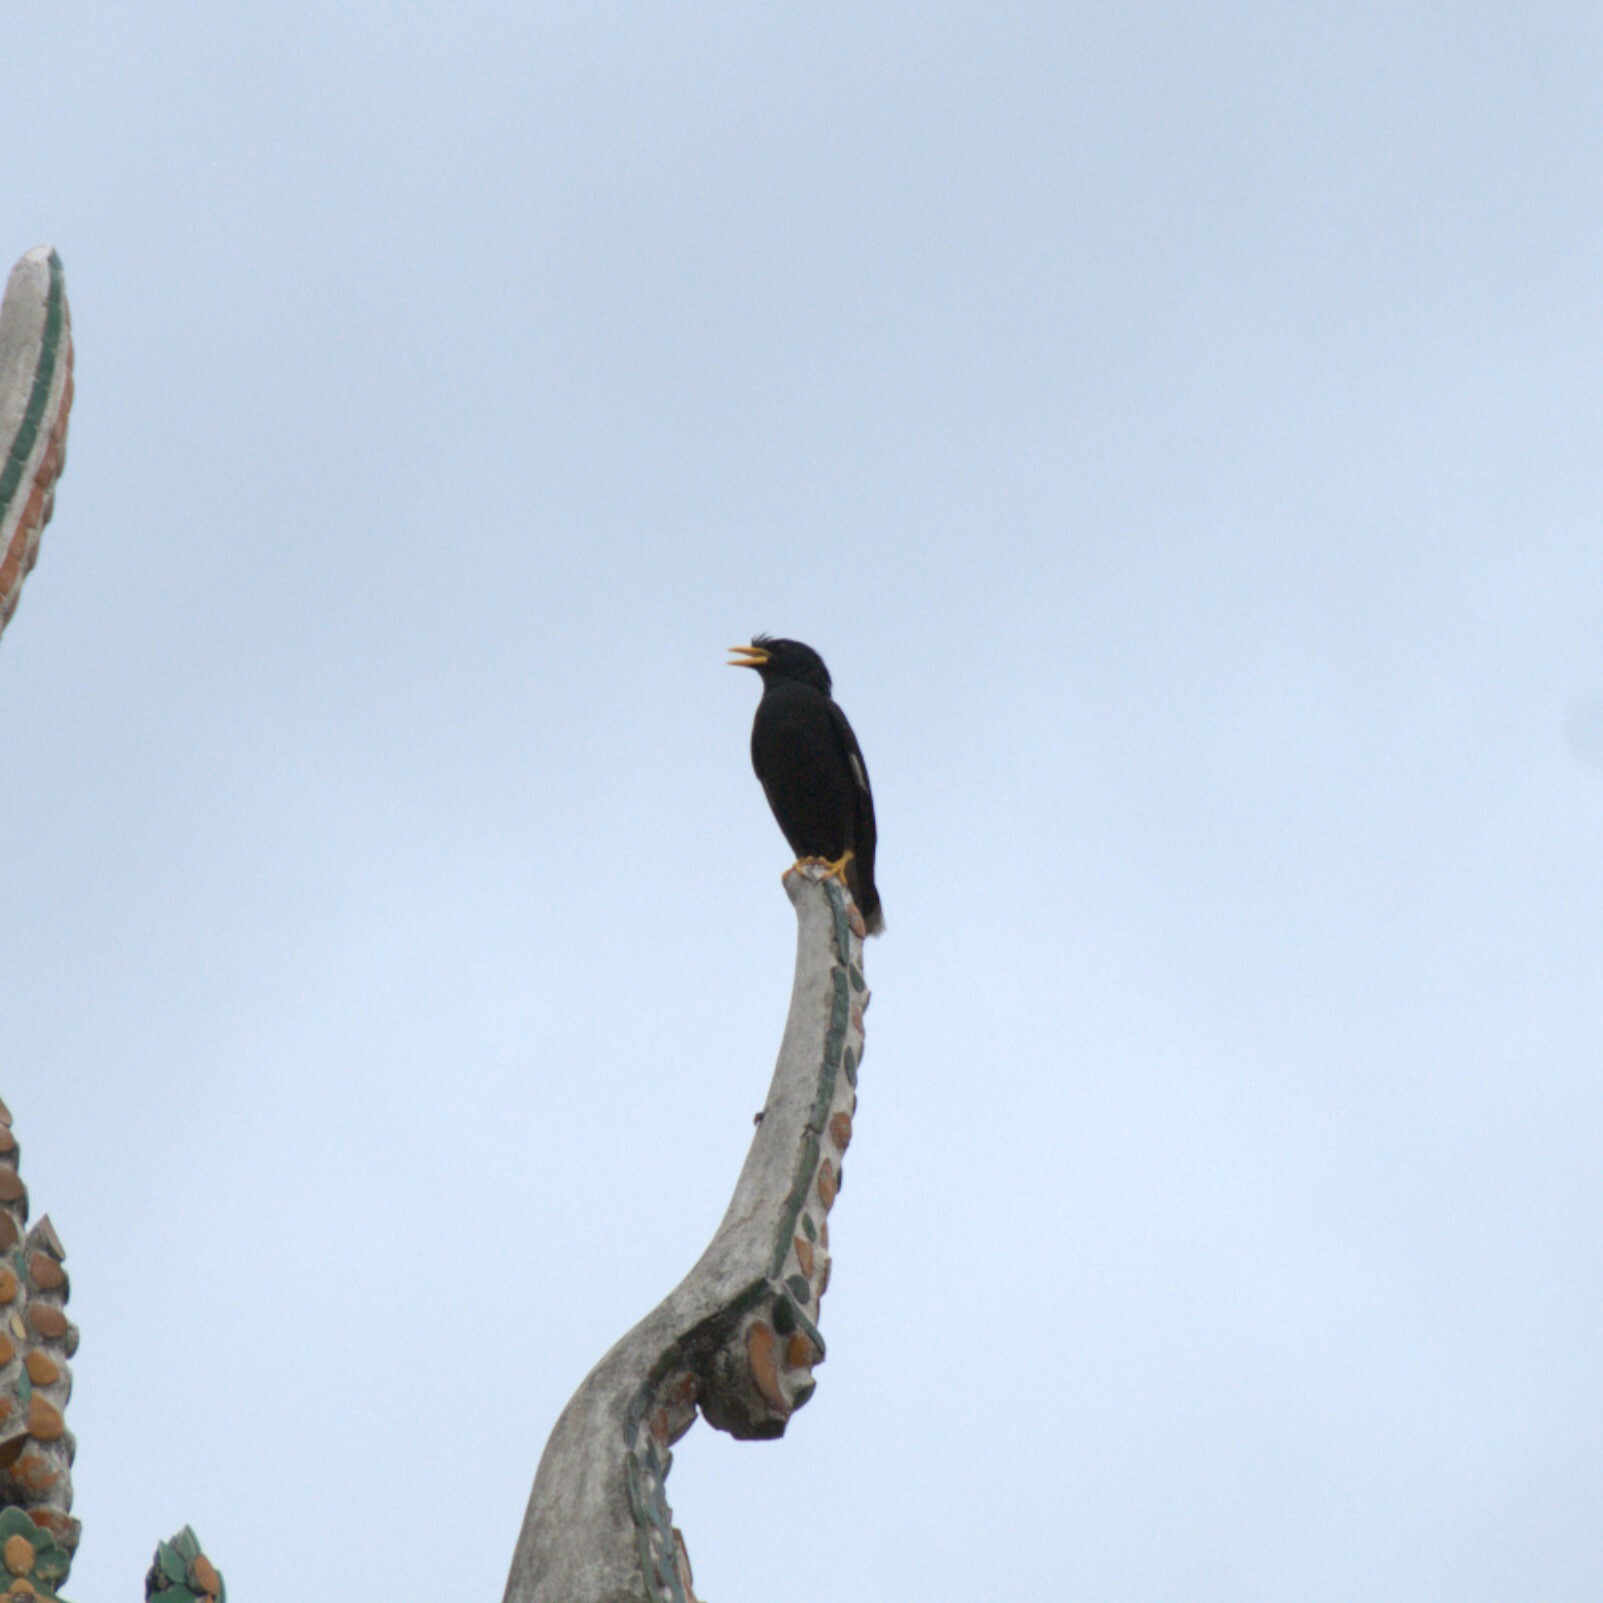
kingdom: Animalia
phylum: Chordata
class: Aves
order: Passeriformes
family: Sturnidae
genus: Acridotheres
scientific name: Acridotheres grandis
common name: Great myna
